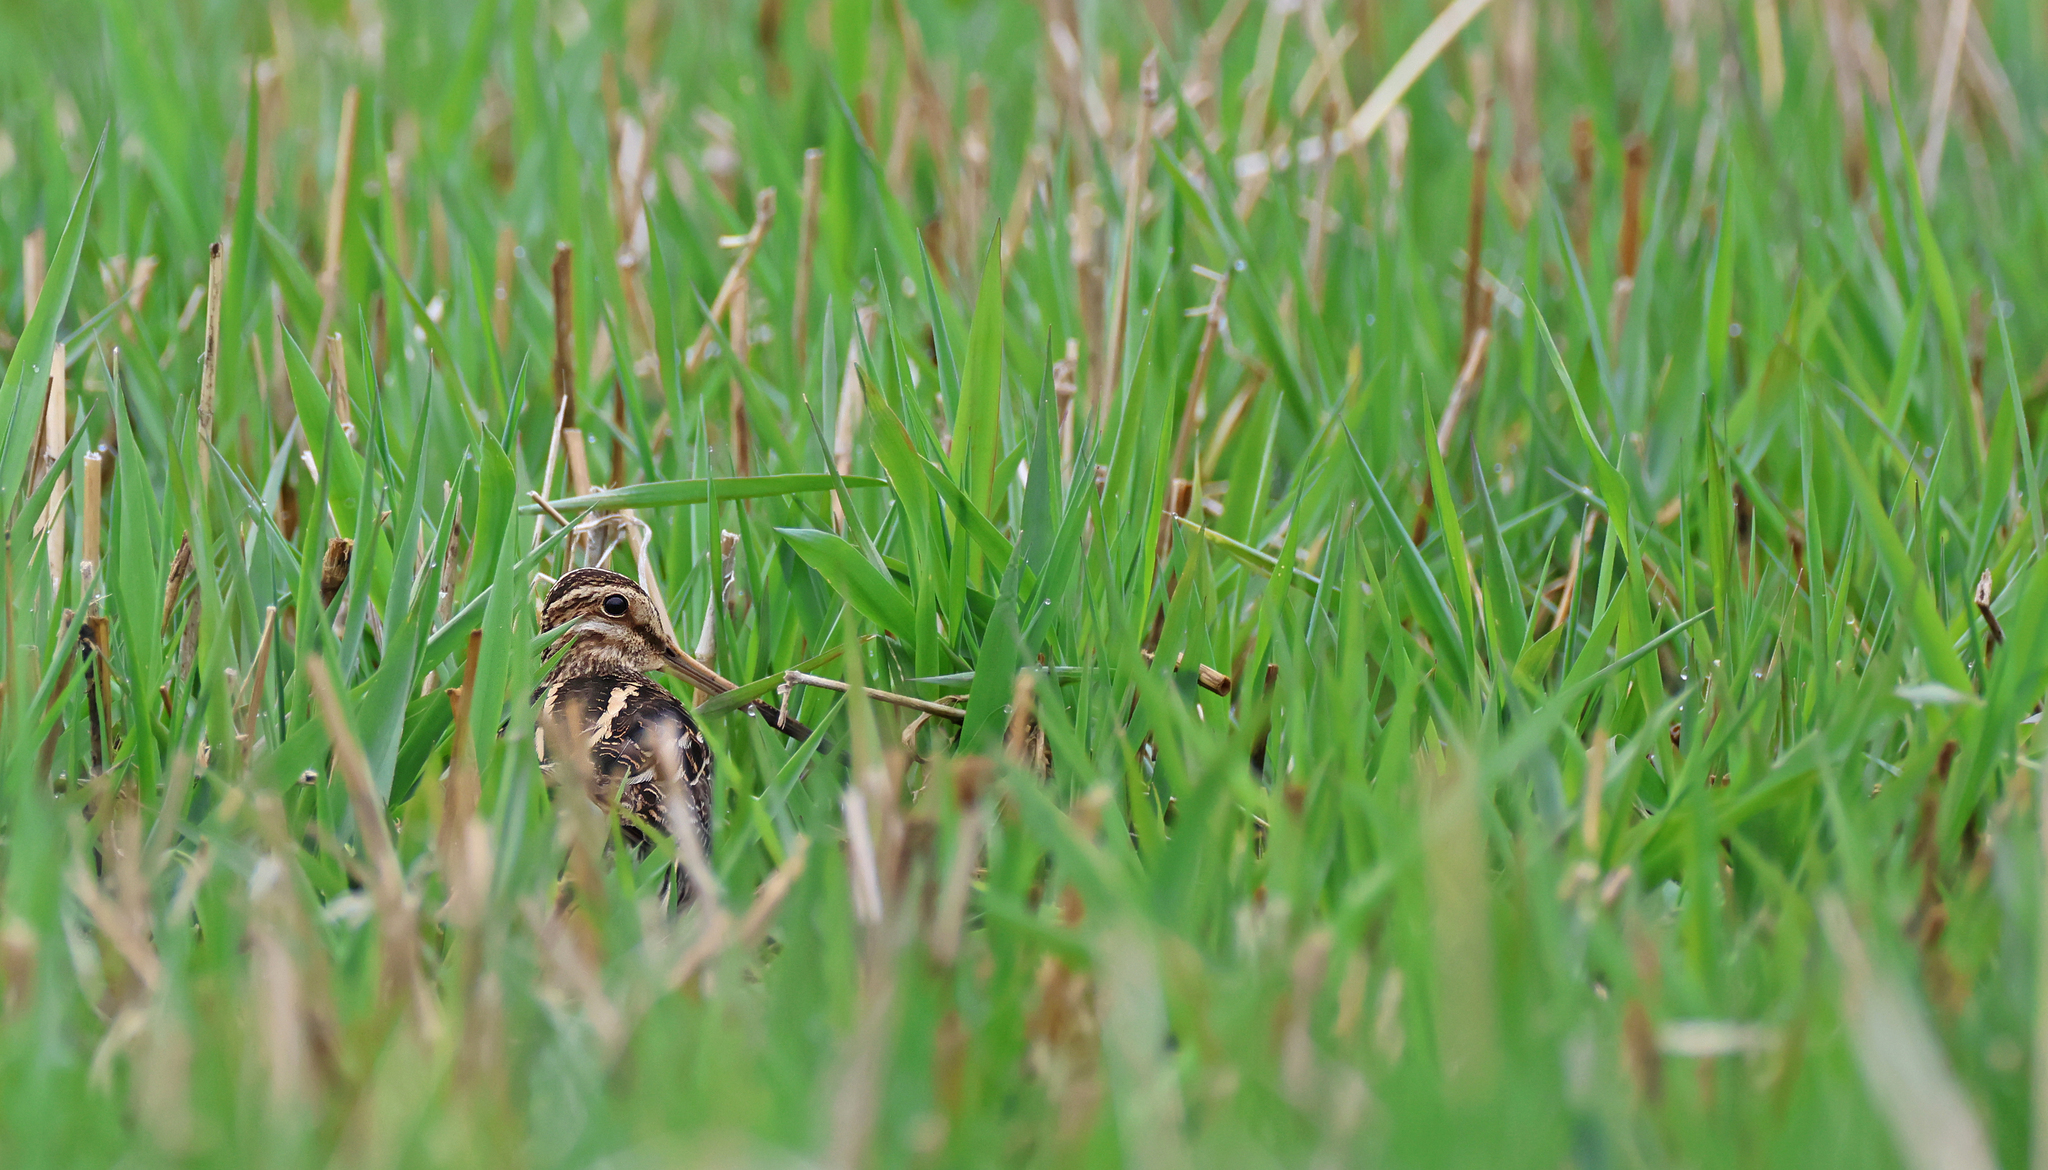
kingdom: Animalia
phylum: Chordata
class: Aves
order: Charadriiformes
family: Scolopacidae
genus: Gallinago
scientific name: Gallinago gallinago
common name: Common snipe
